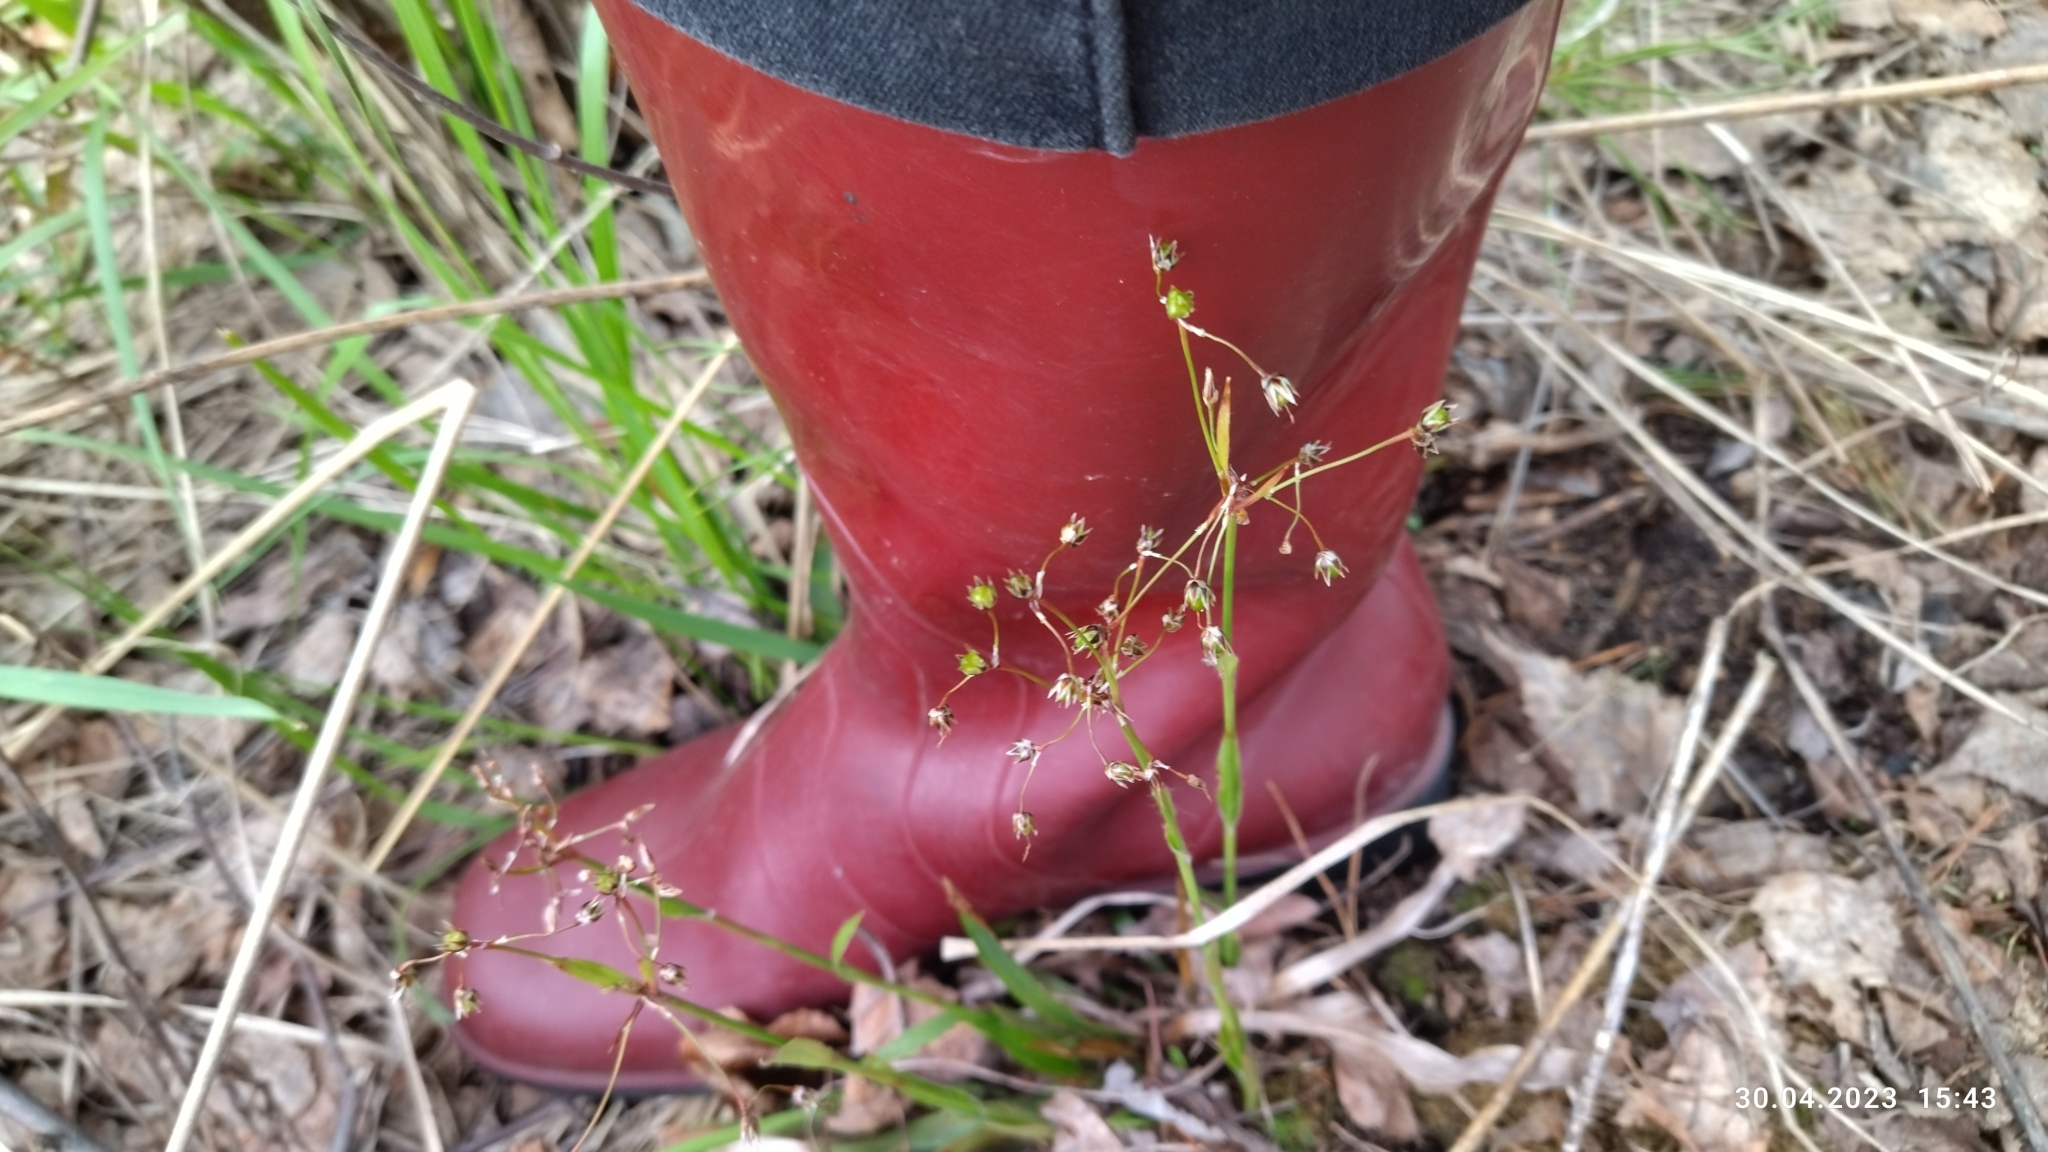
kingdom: Plantae
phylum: Tracheophyta
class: Liliopsida
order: Poales
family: Juncaceae
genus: Luzula
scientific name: Luzula pilosa
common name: Hairy wood-rush
